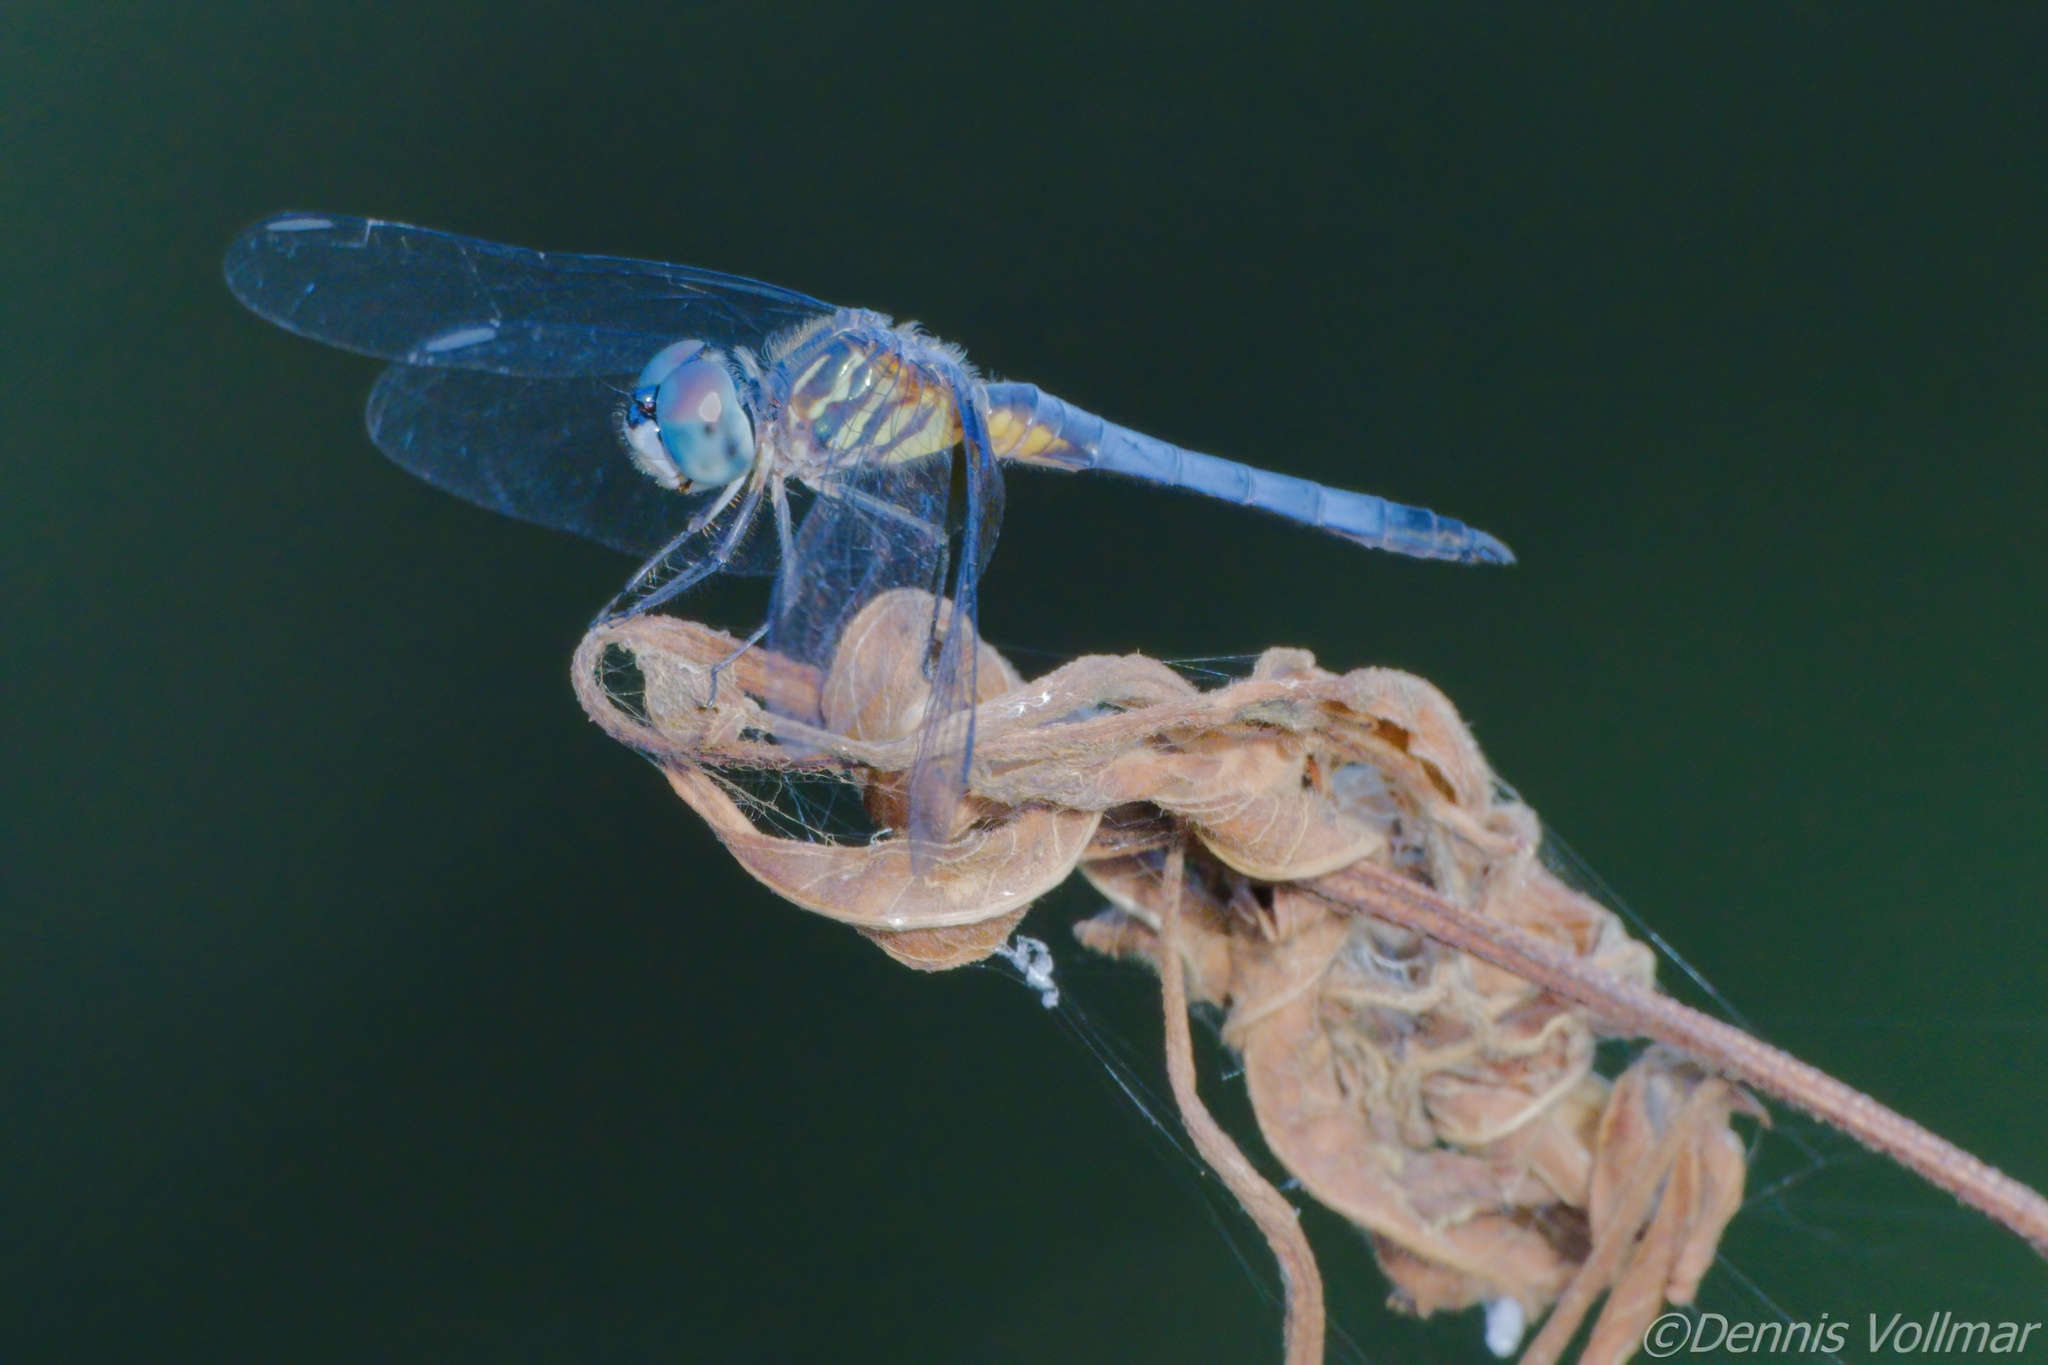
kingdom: Animalia
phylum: Arthropoda
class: Insecta
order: Odonata
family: Libellulidae
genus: Pachydiplax
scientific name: Pachydiplax longipennis
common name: Blue dasher
